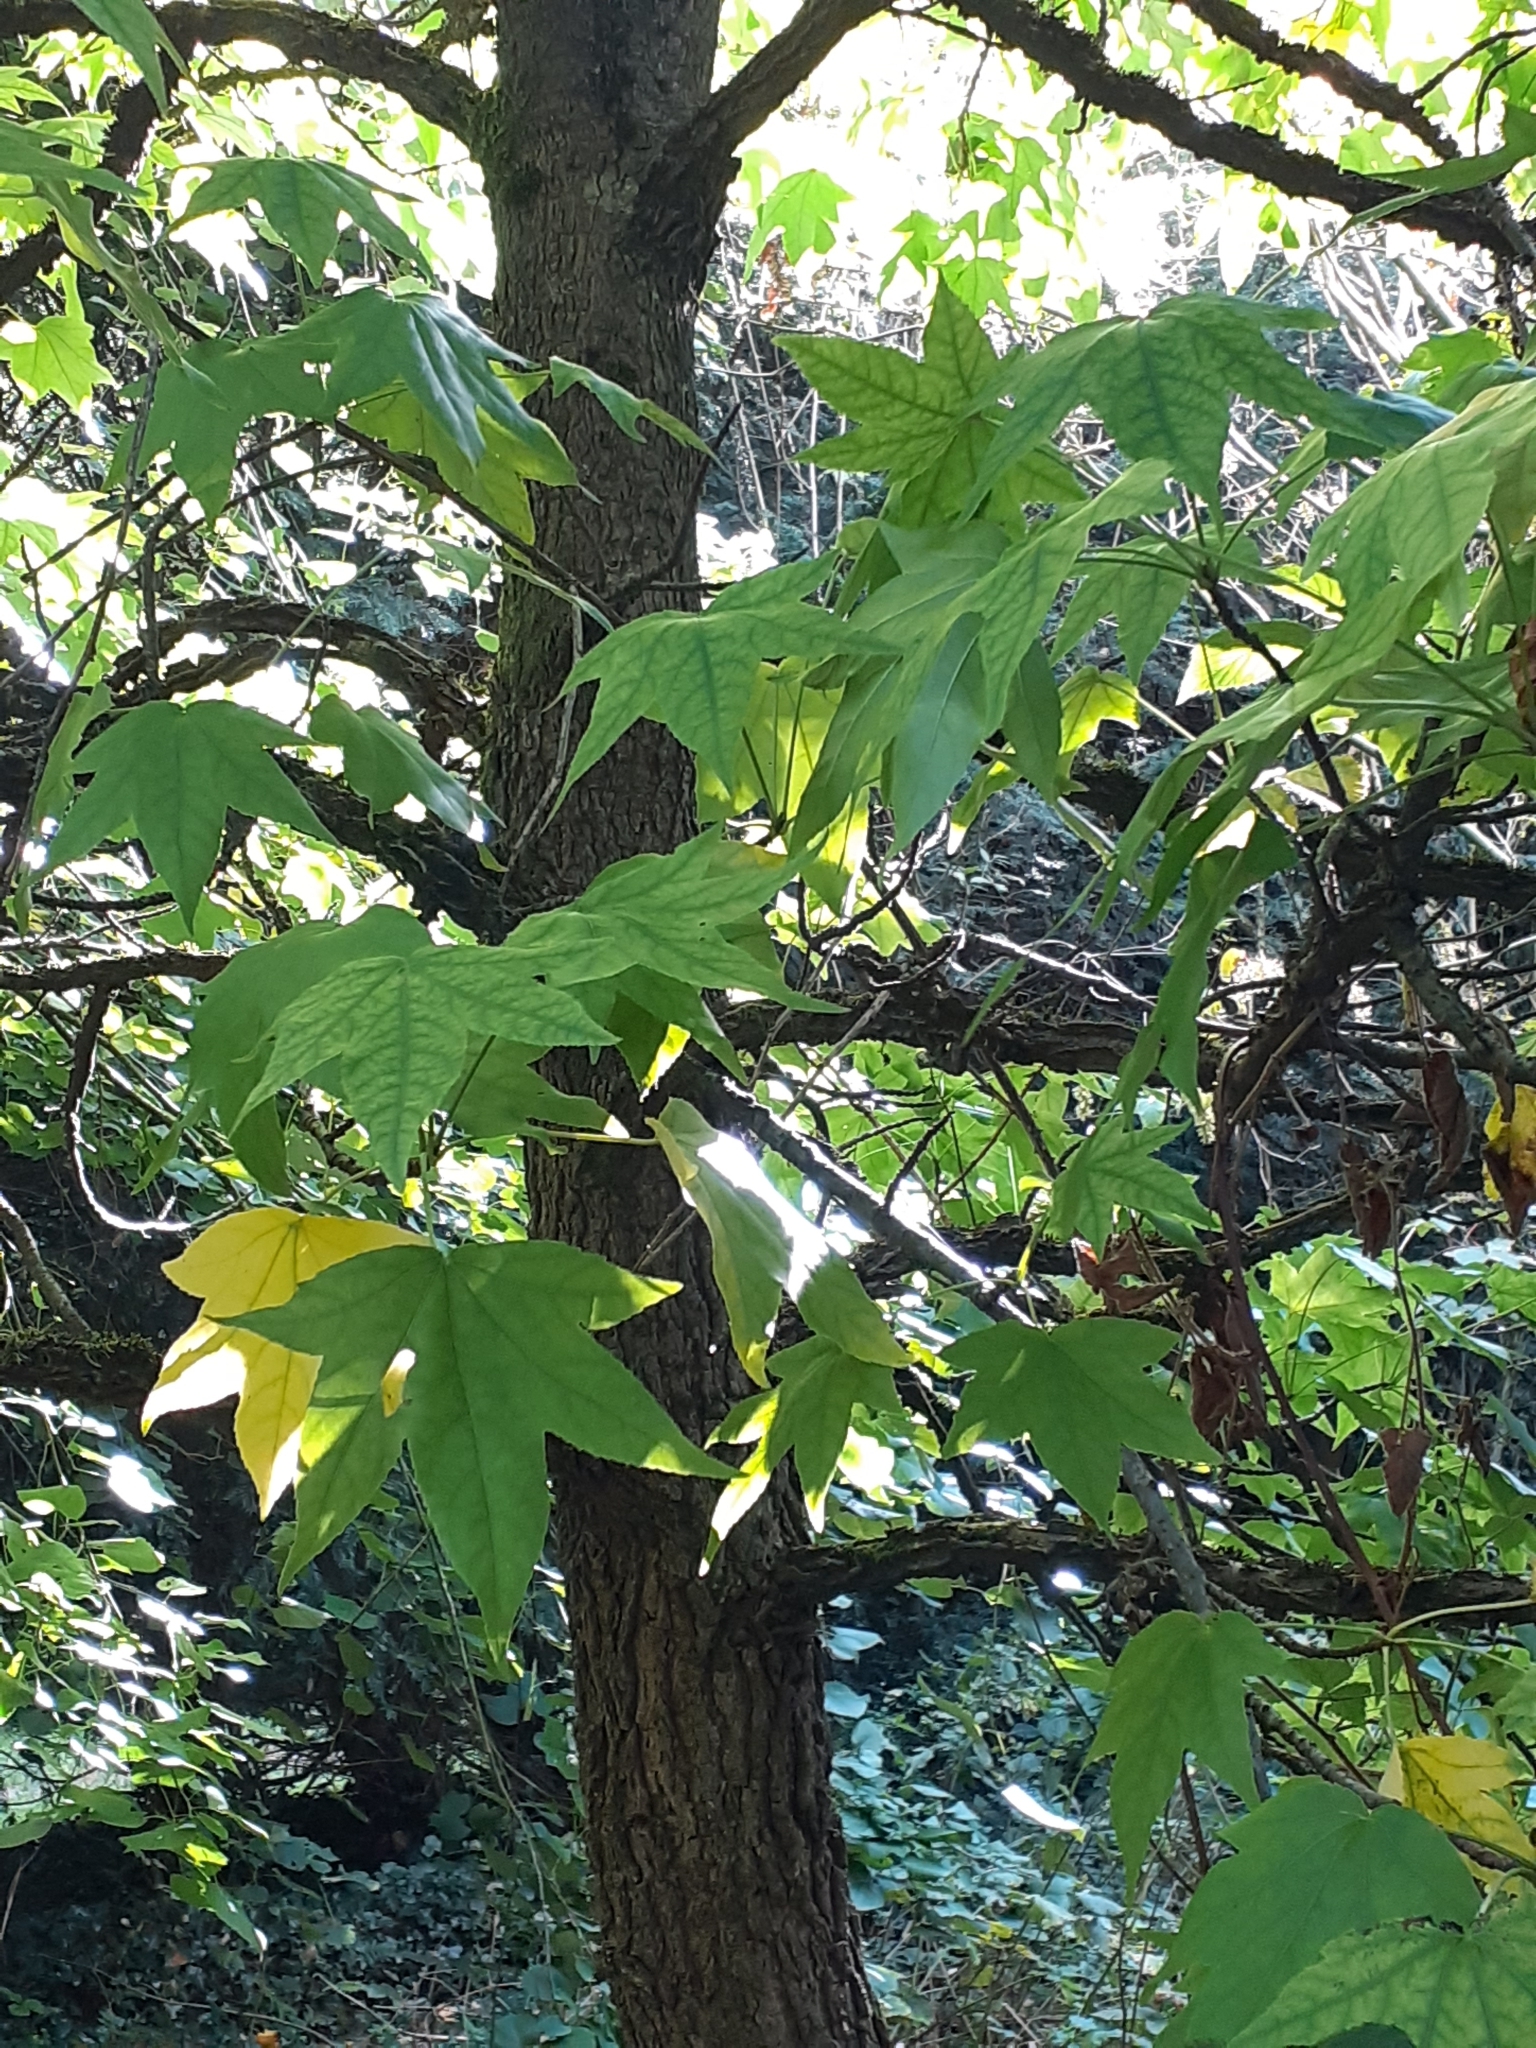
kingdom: Plantae
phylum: Tracheophyta
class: Magnoliopsida
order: Saxifragales
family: Altingiaceae
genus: Liquidambar
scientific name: Liquidambar styraciflua
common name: Sweet gum
